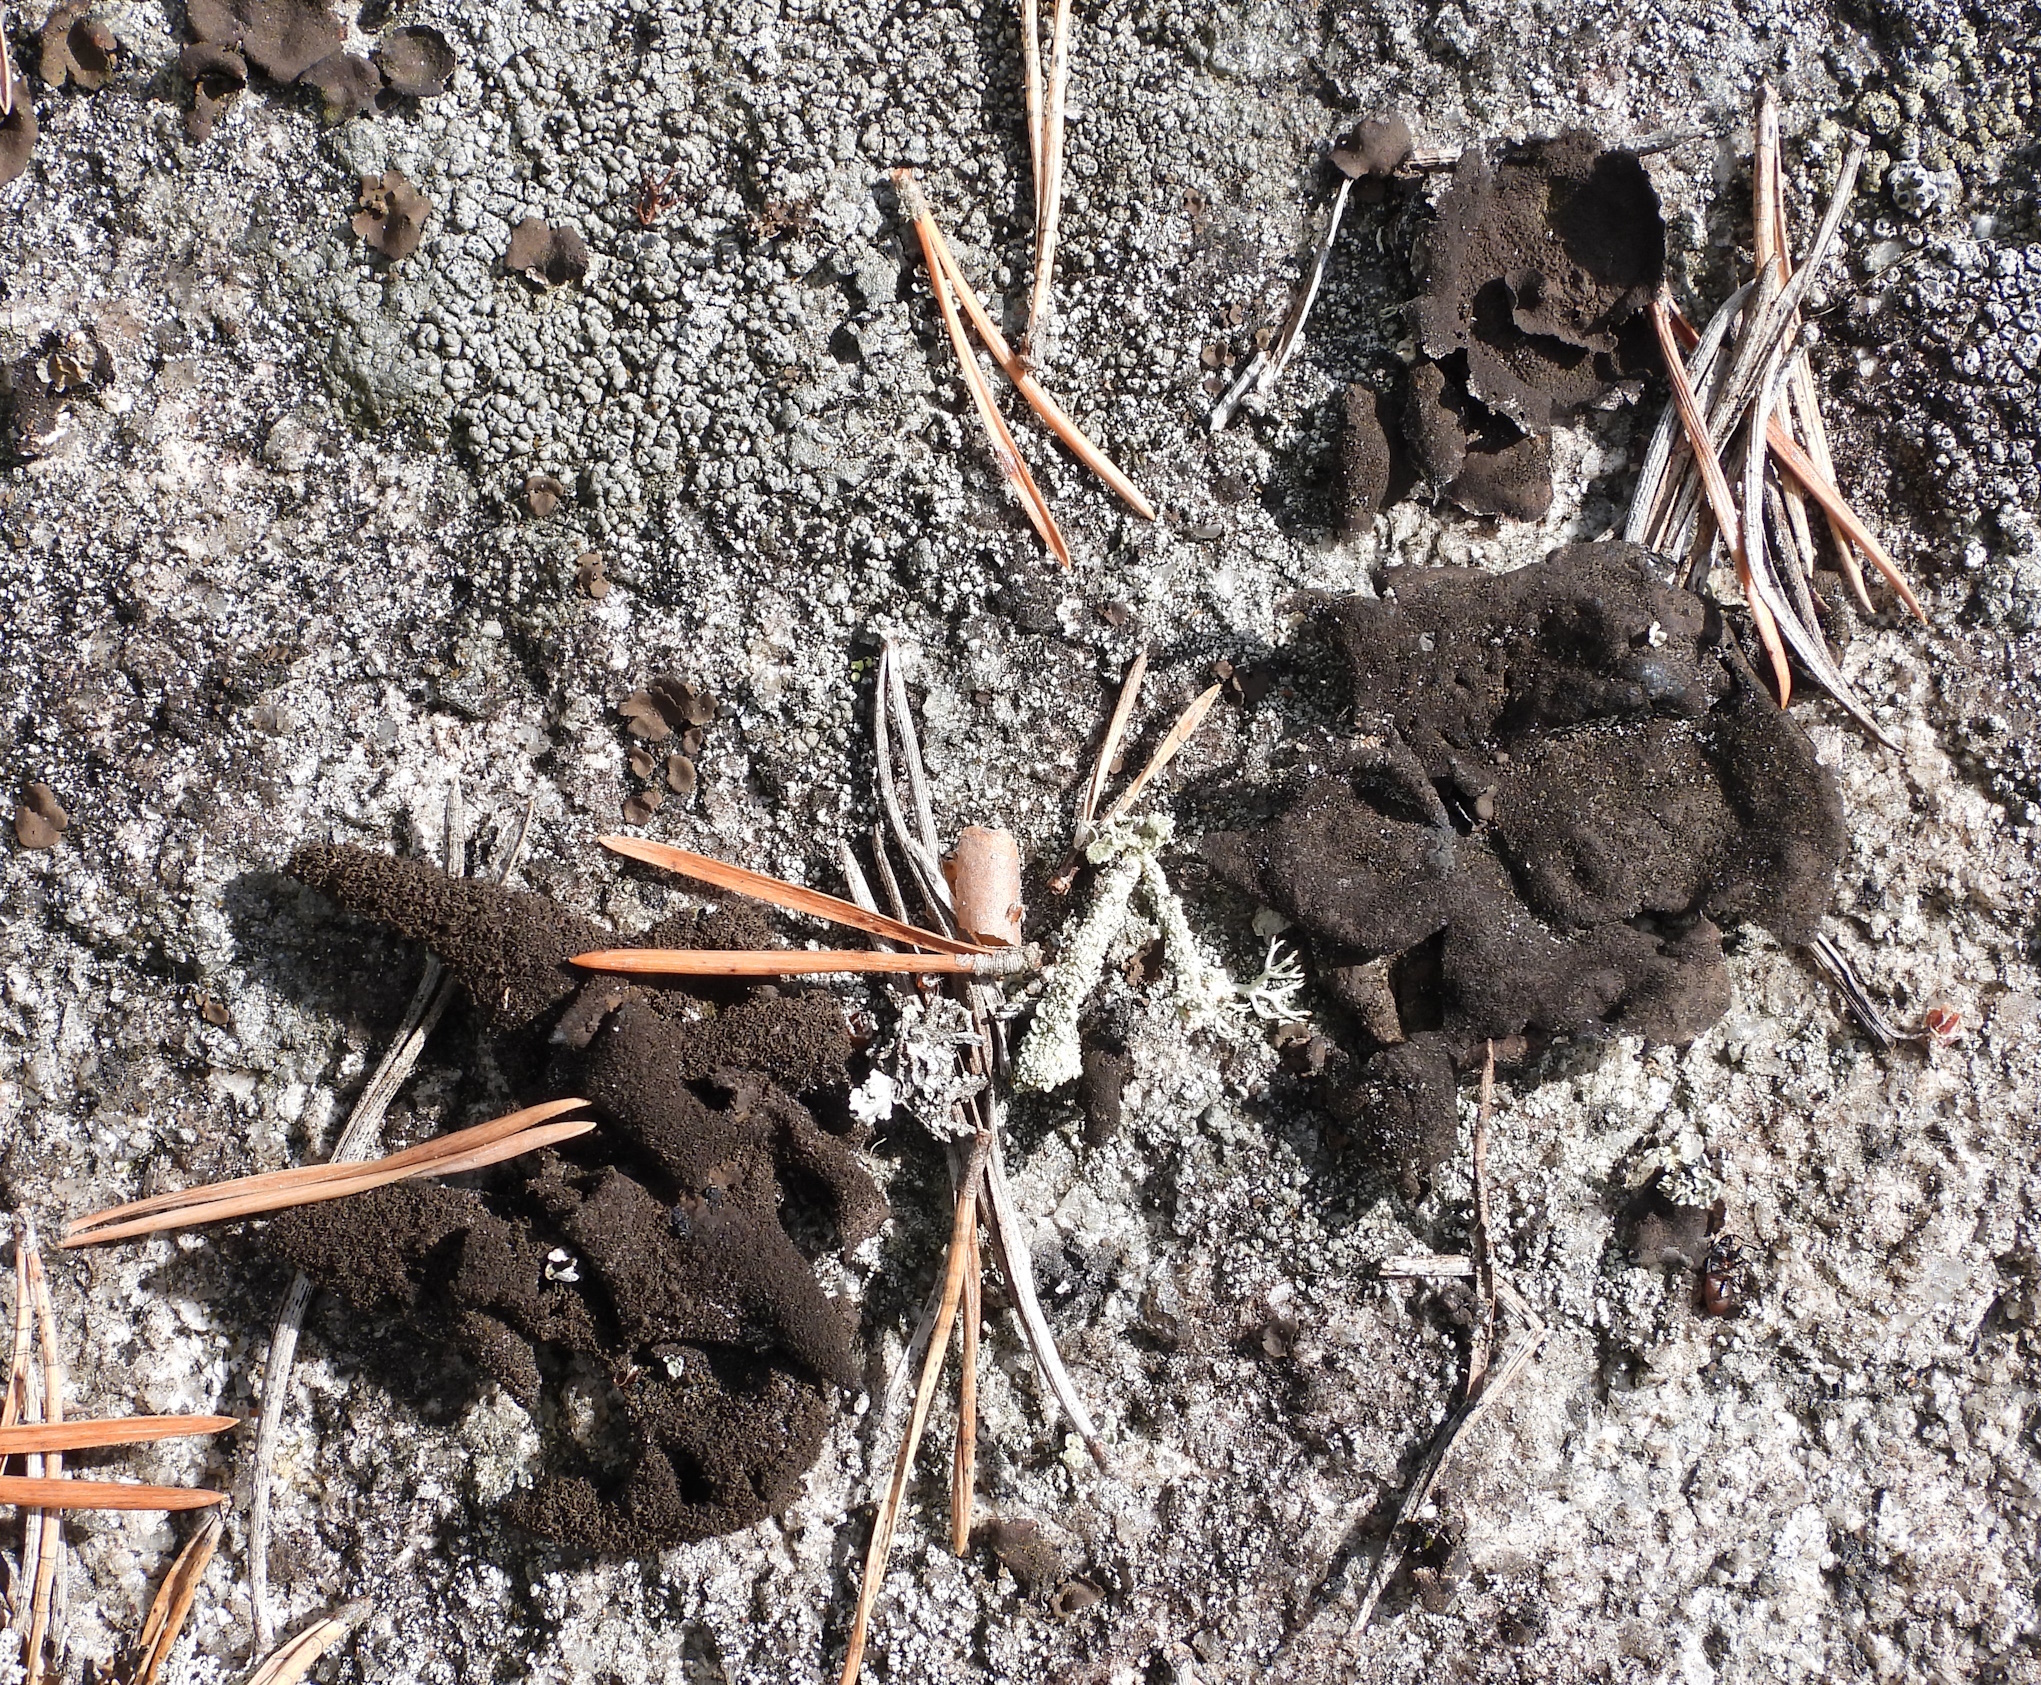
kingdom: Fungi
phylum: Ascomycota
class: Lecanoromycetes
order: Umbilicariales
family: Umbilicariaceae
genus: Umbilicaria
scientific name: Umbilicaria deusta
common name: Peppered rock tripe
